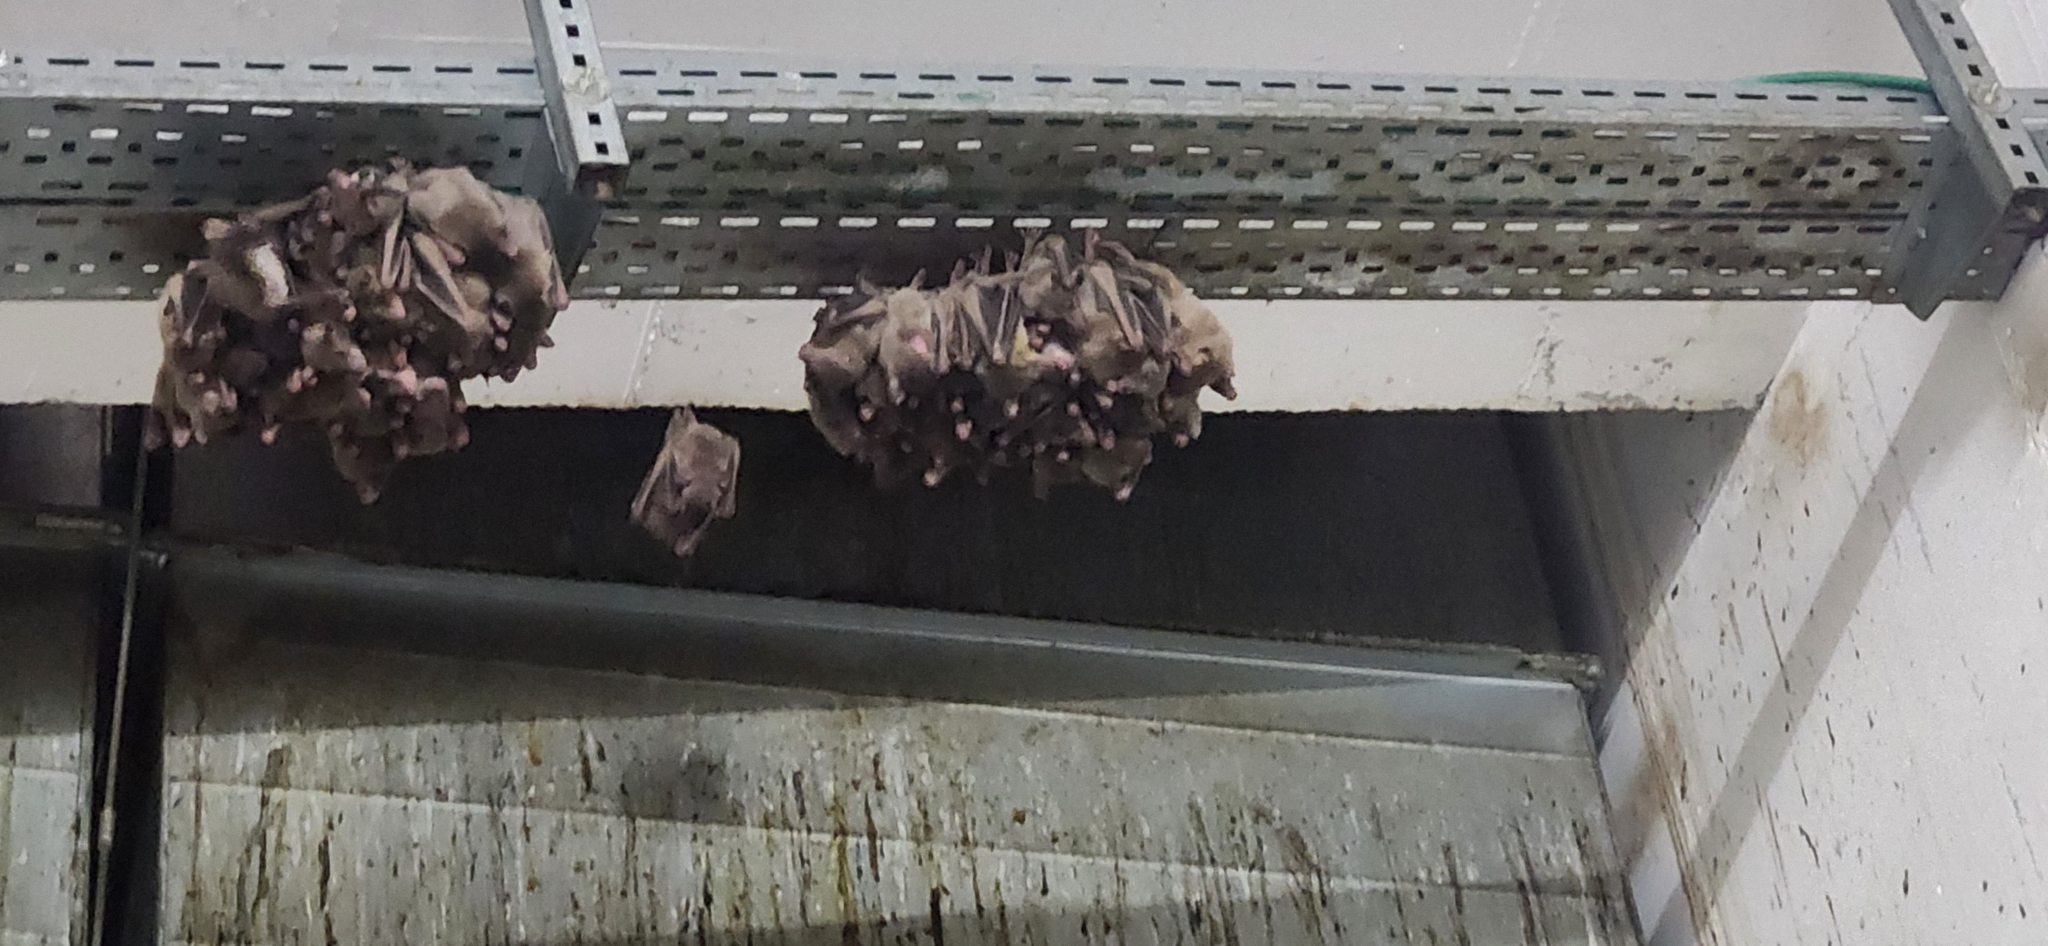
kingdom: Animalia
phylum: Chordata
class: Mammalia
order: Chiroptera
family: Pteropodidae
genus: Rousettus
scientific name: Rousettus aegyptiacus
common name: Egyptian rousette
